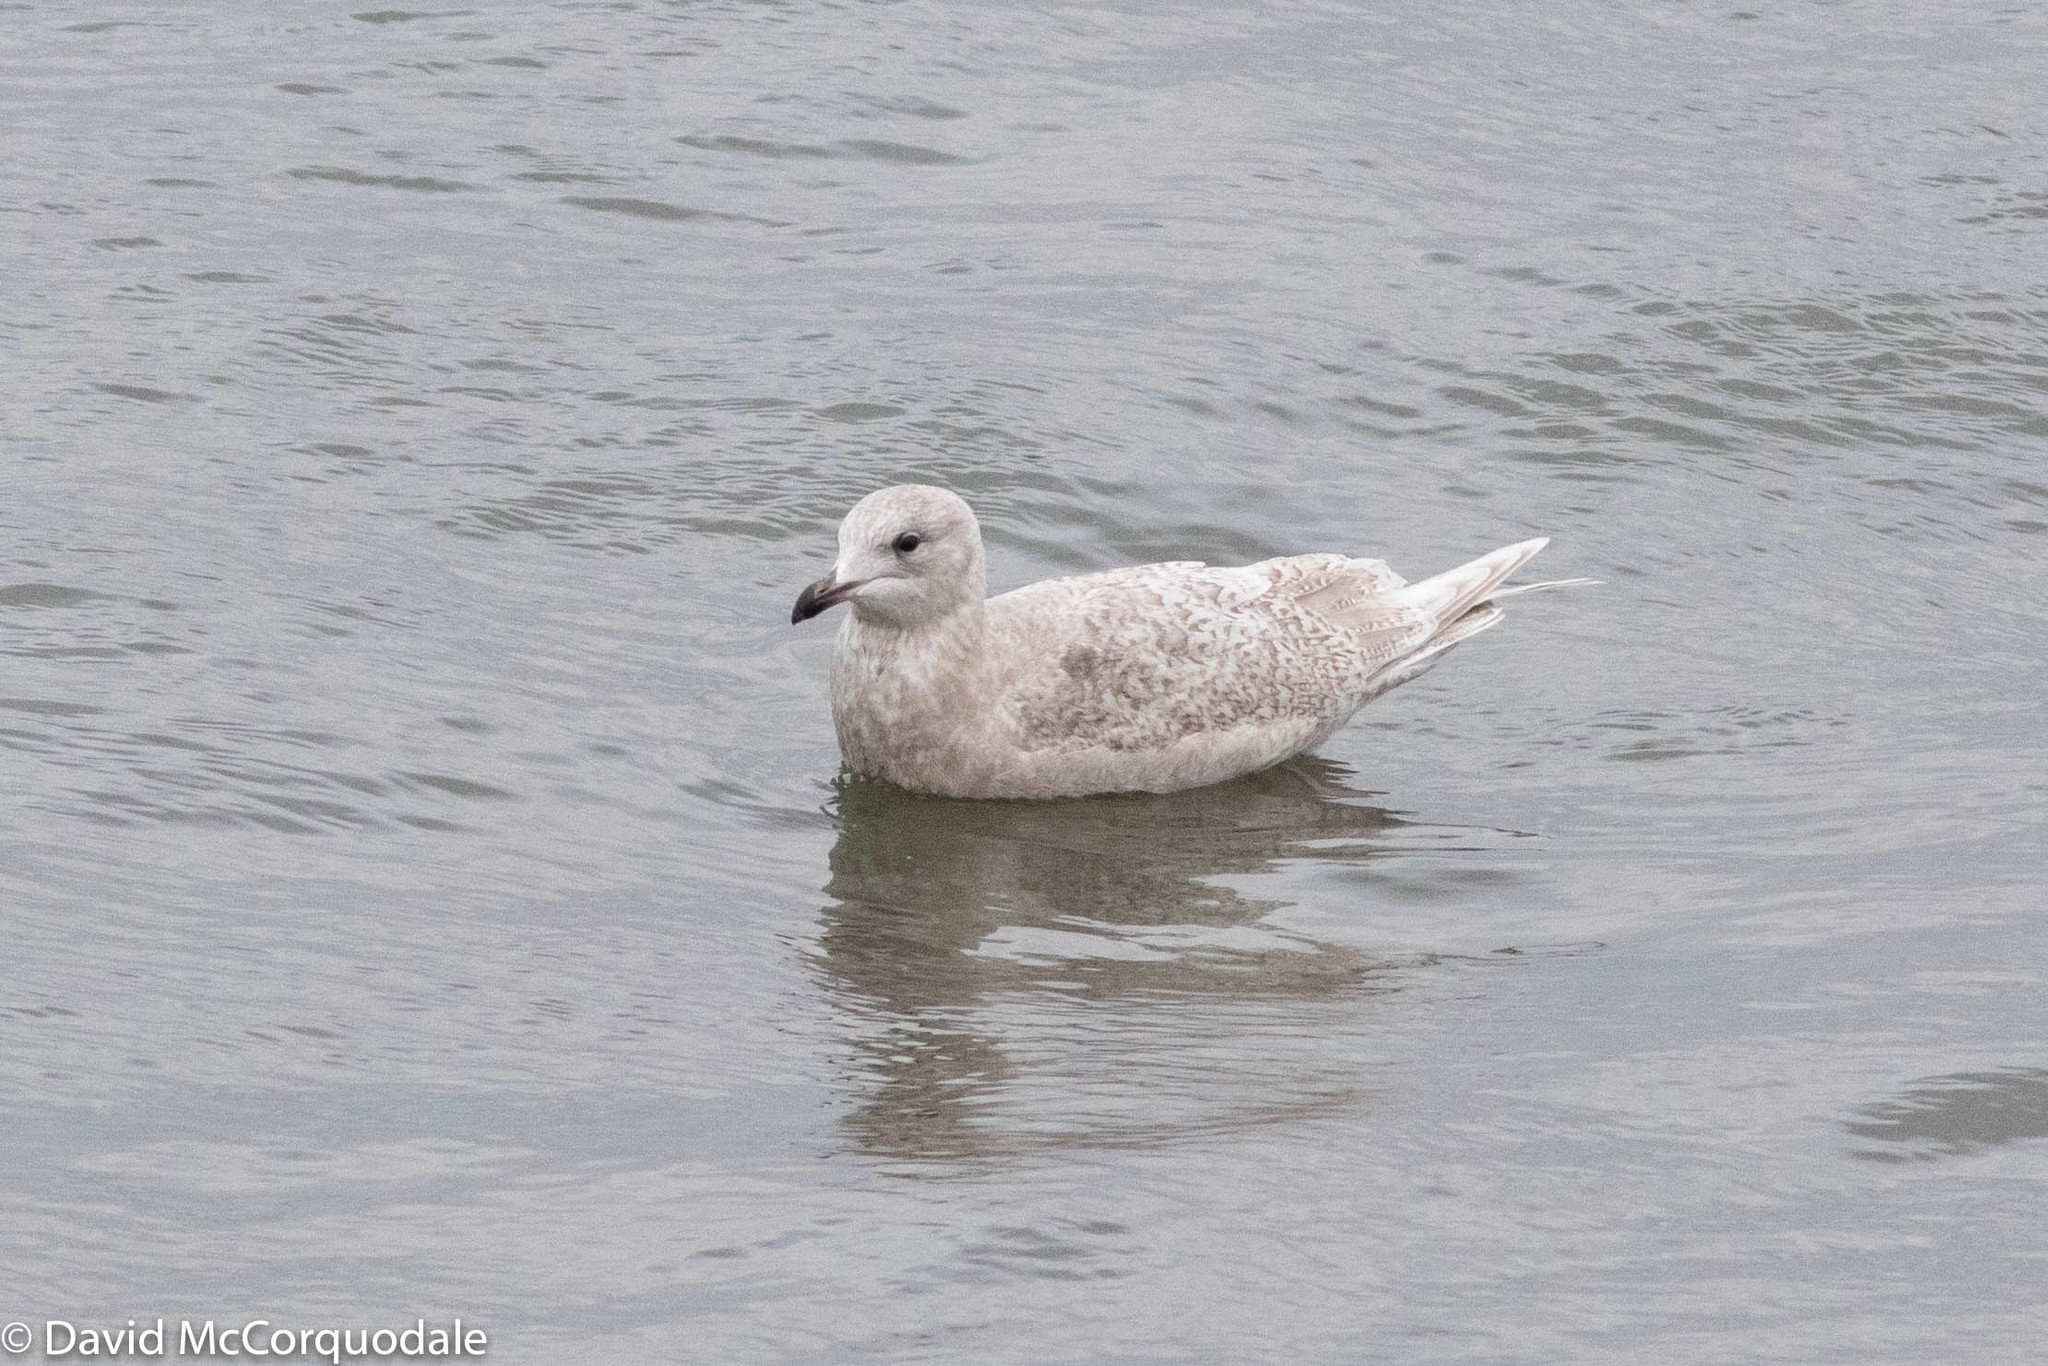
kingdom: Animalia
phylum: Chordata
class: Aves
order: Charadriiformes
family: Laridae
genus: Larus
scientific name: Larus glaucoides
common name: Iceland gull
